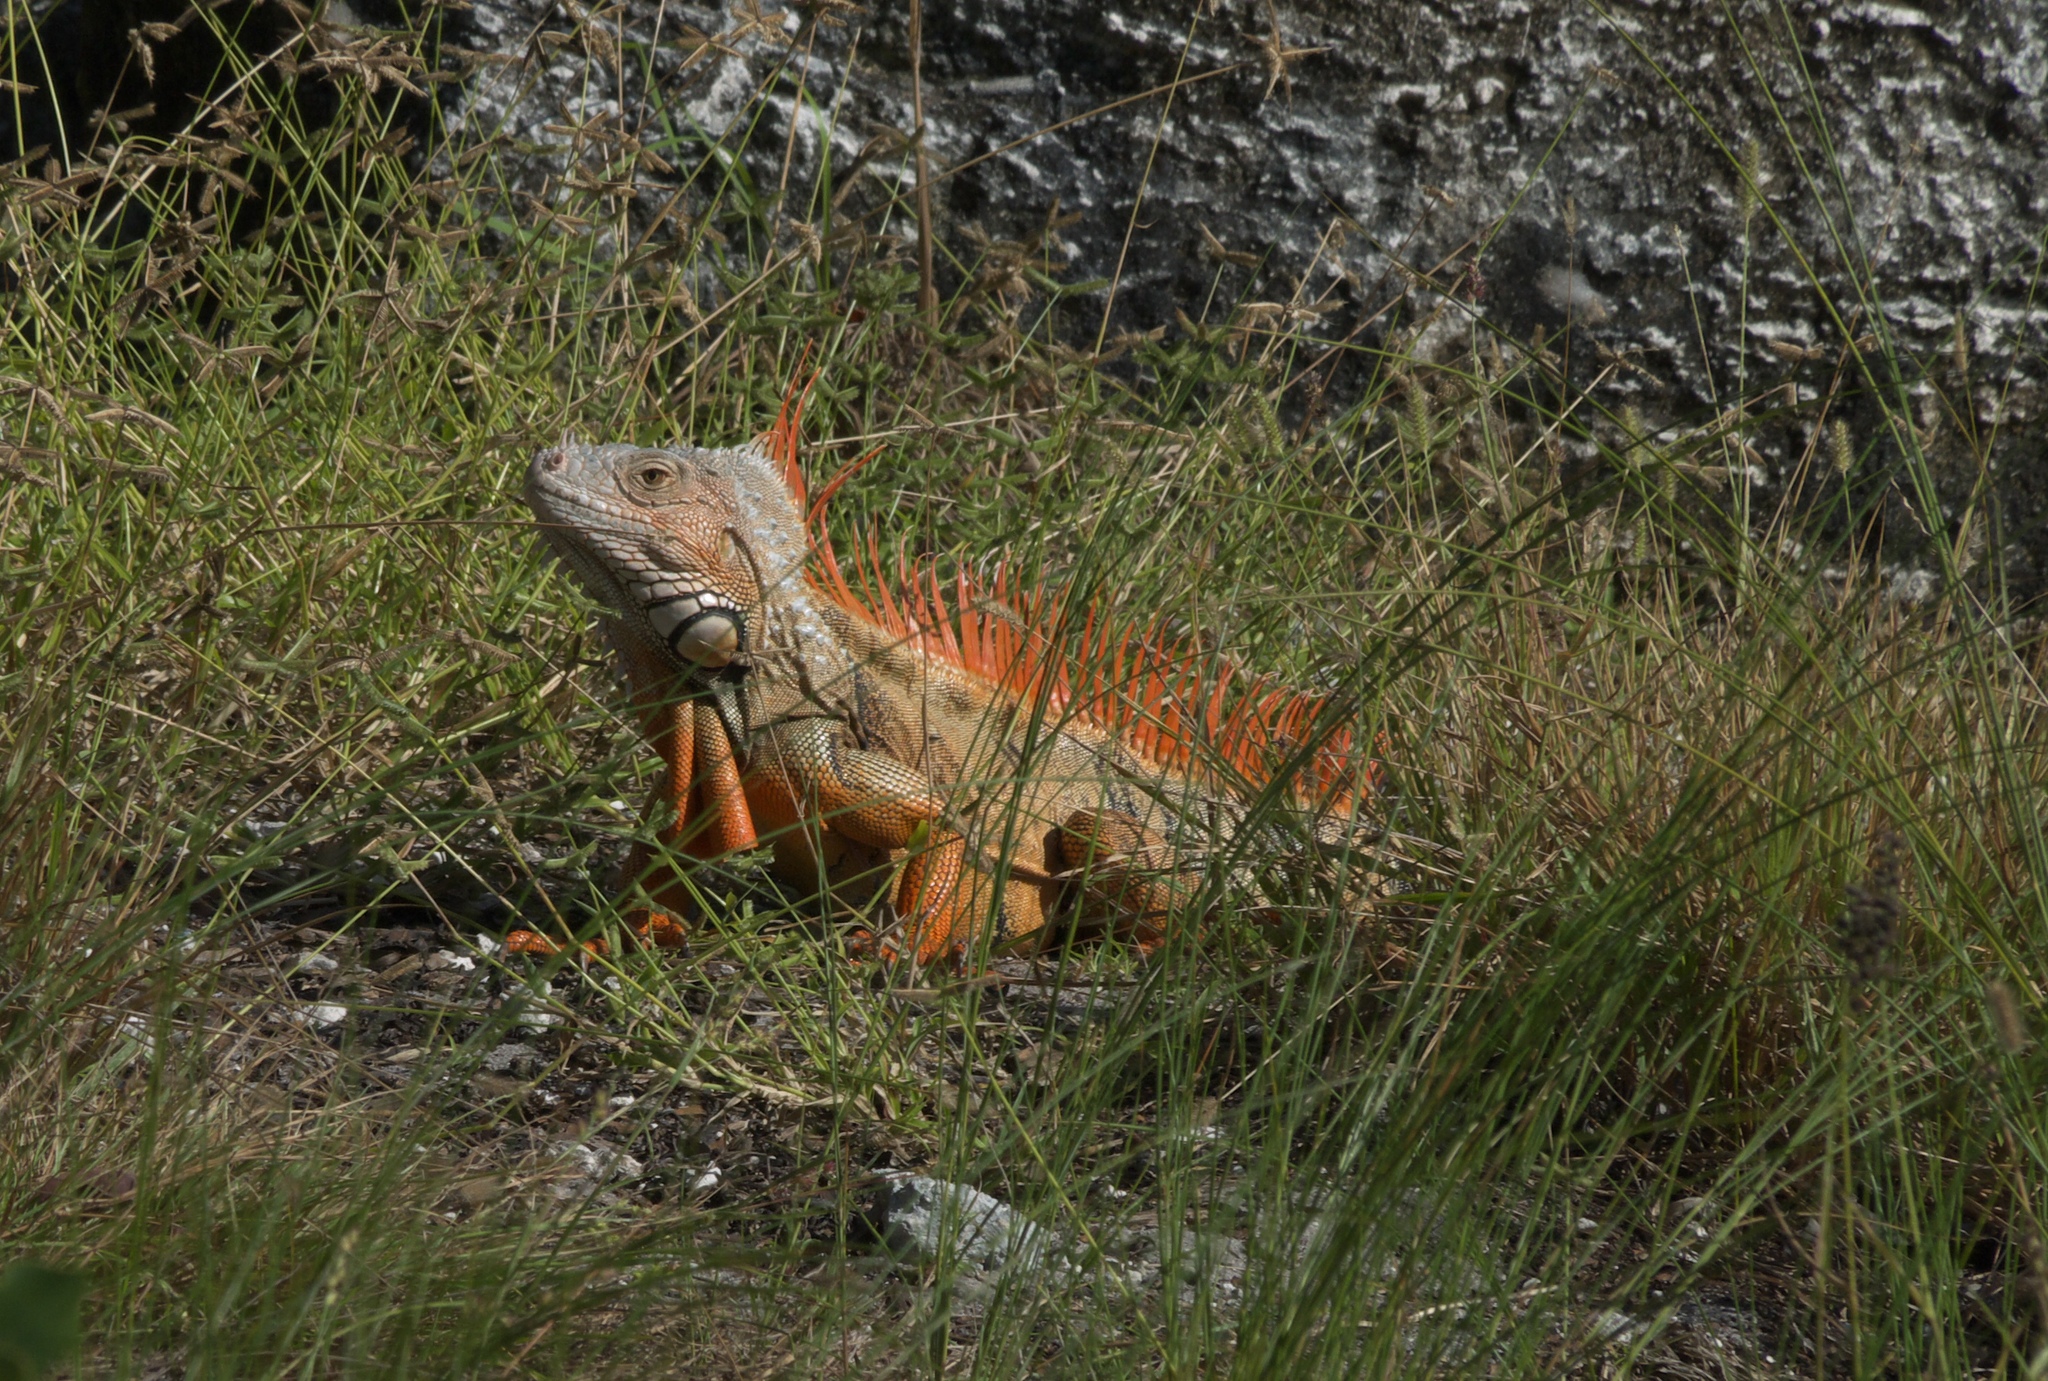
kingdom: Animalia
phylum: Chordata
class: Squamata
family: Iguanidae
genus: Iguana
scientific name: Iguana iguana
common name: Green iguana
